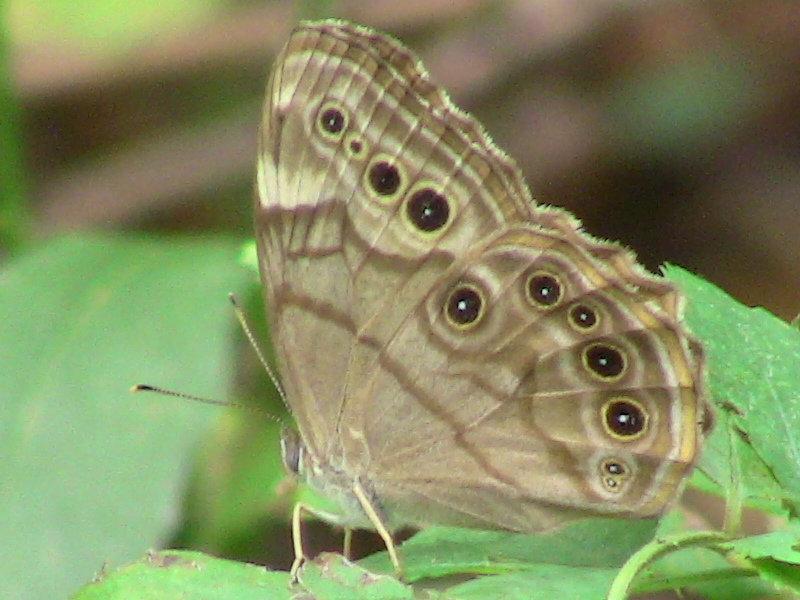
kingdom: Animalia
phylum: Arthropoda
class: Insecta
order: Lepidoptera
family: Nymphalidae
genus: Lethe
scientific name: Lethe anthedon
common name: Northern pearly-eye
